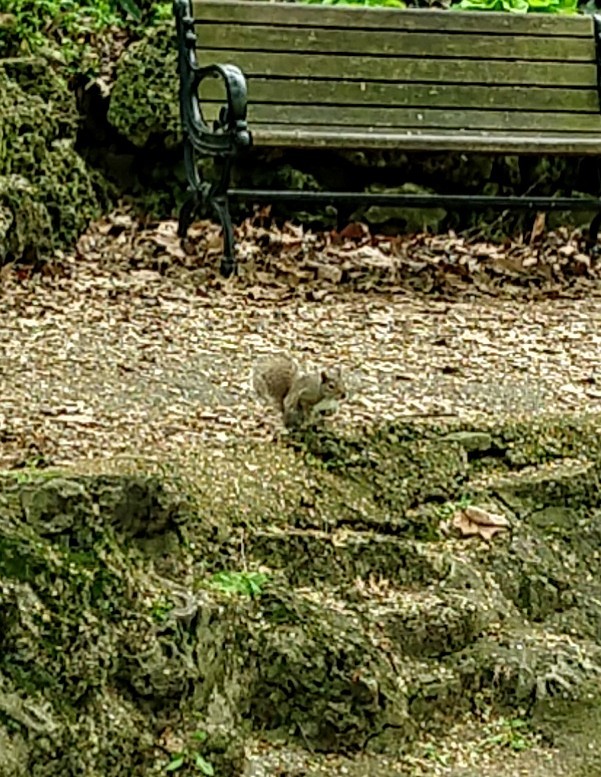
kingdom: Animalia
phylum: Chordata
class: Mammalia
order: Rodentia
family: Sciuridae
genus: Sciurus
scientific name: Sciurus carolinensis
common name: Eastern gray squirrel
